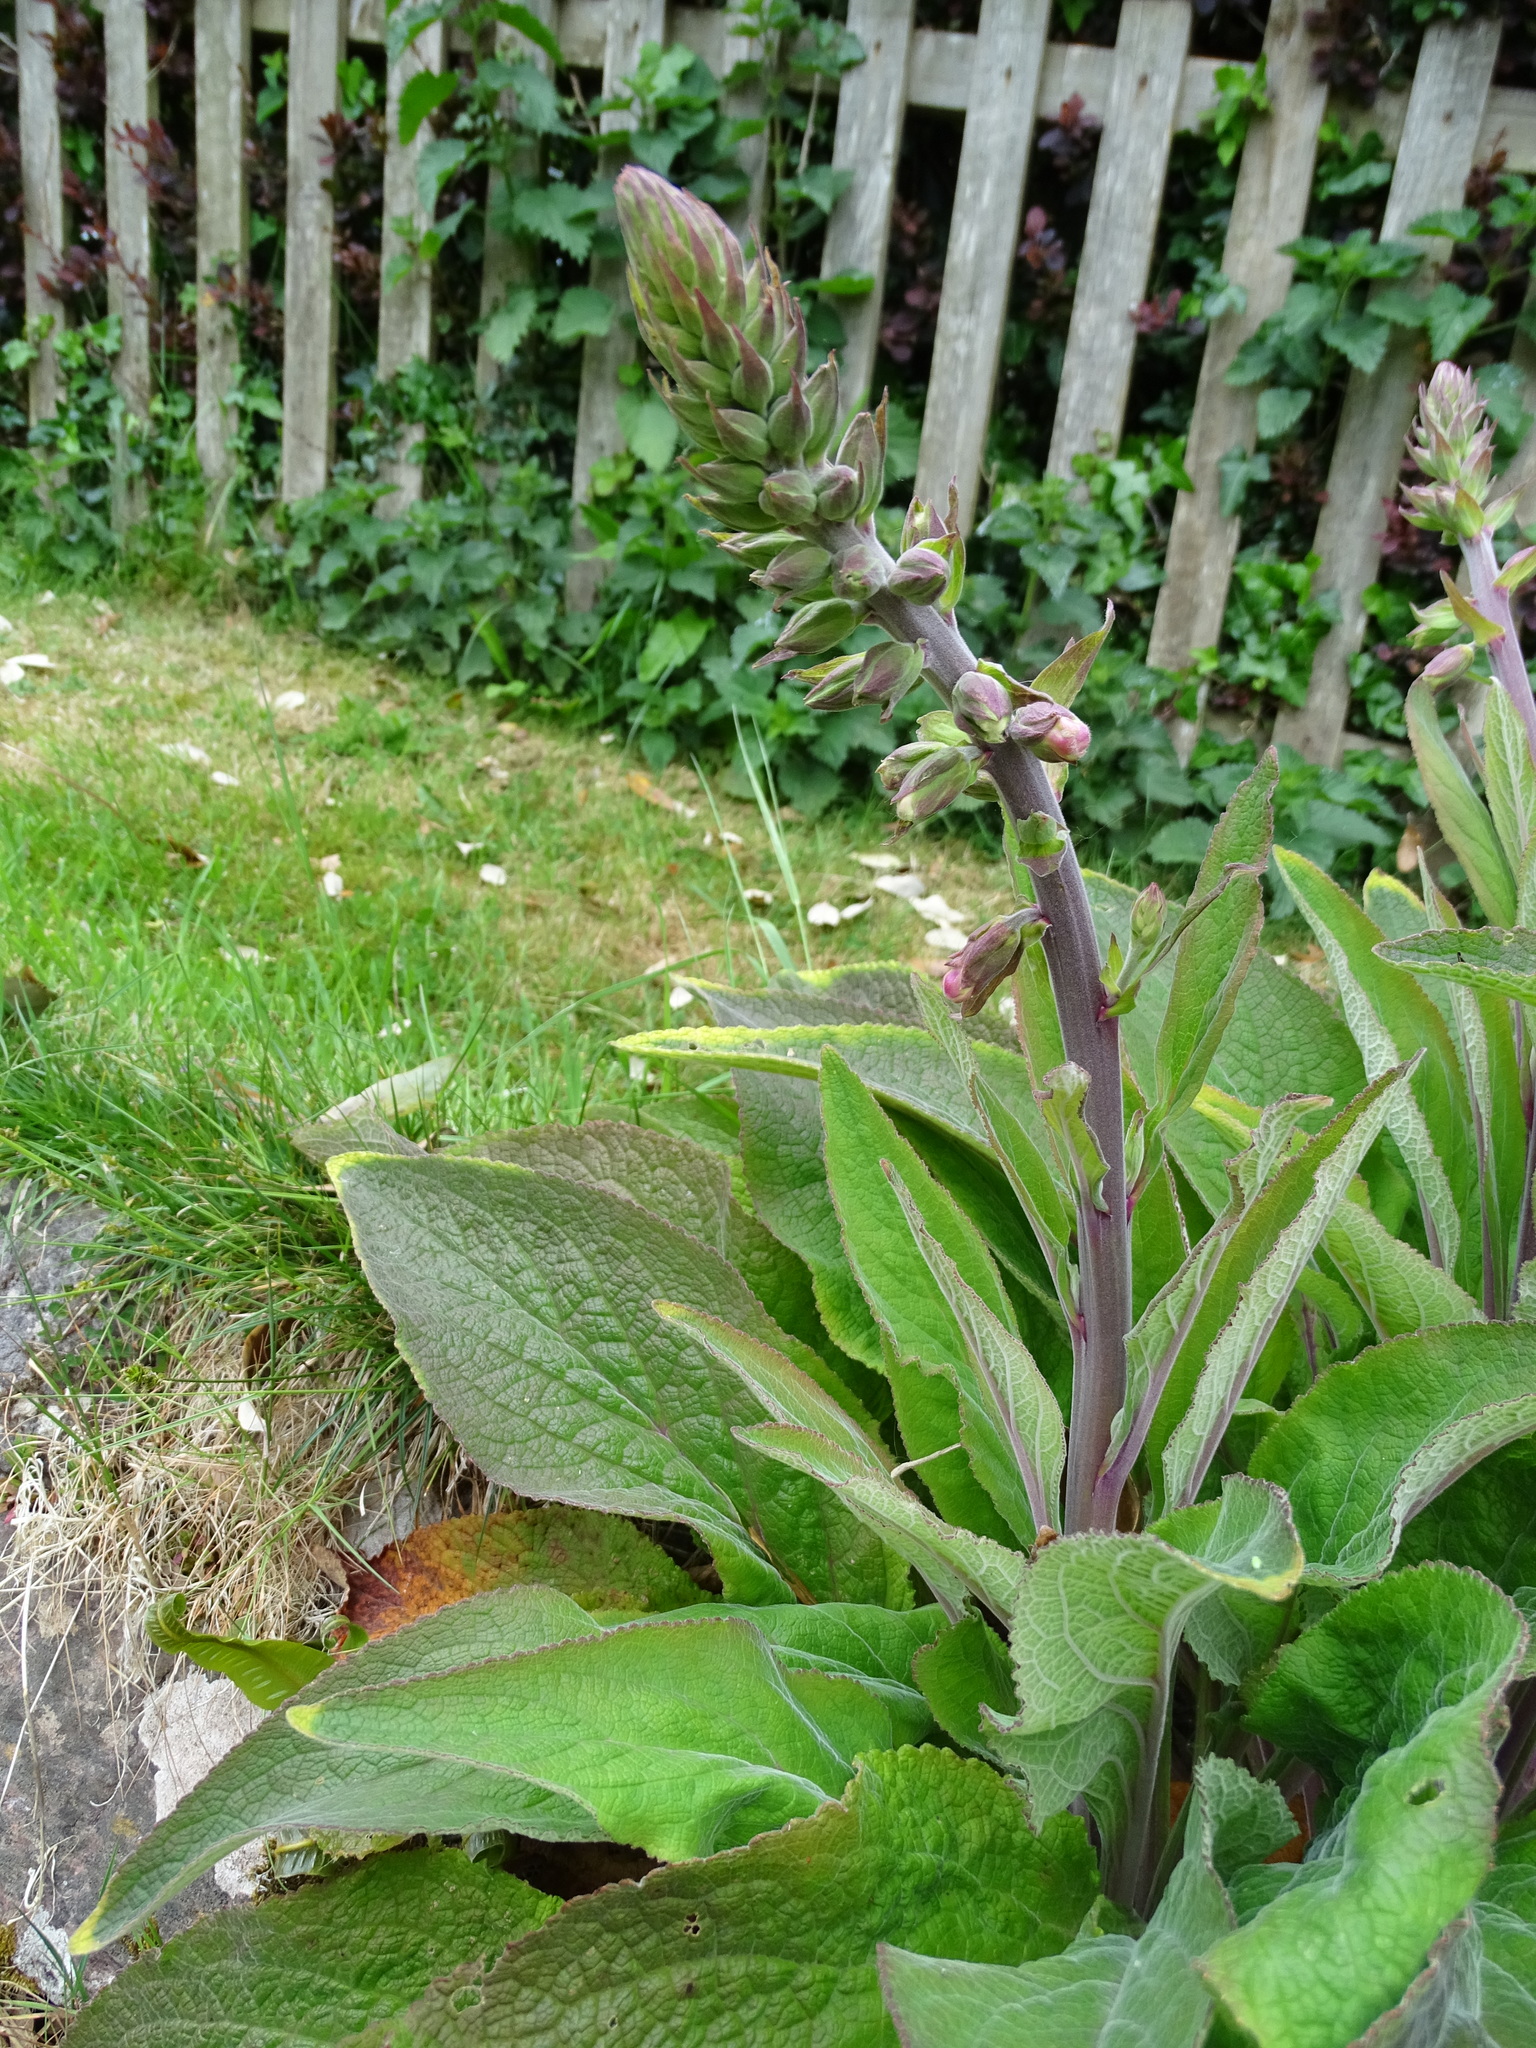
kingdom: Plantae
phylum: Tracheophyta
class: Magnoliopsida
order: Lamiales
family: Plantaginaceae
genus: Digitalis
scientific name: Digitalis purpurea
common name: Foxglove
